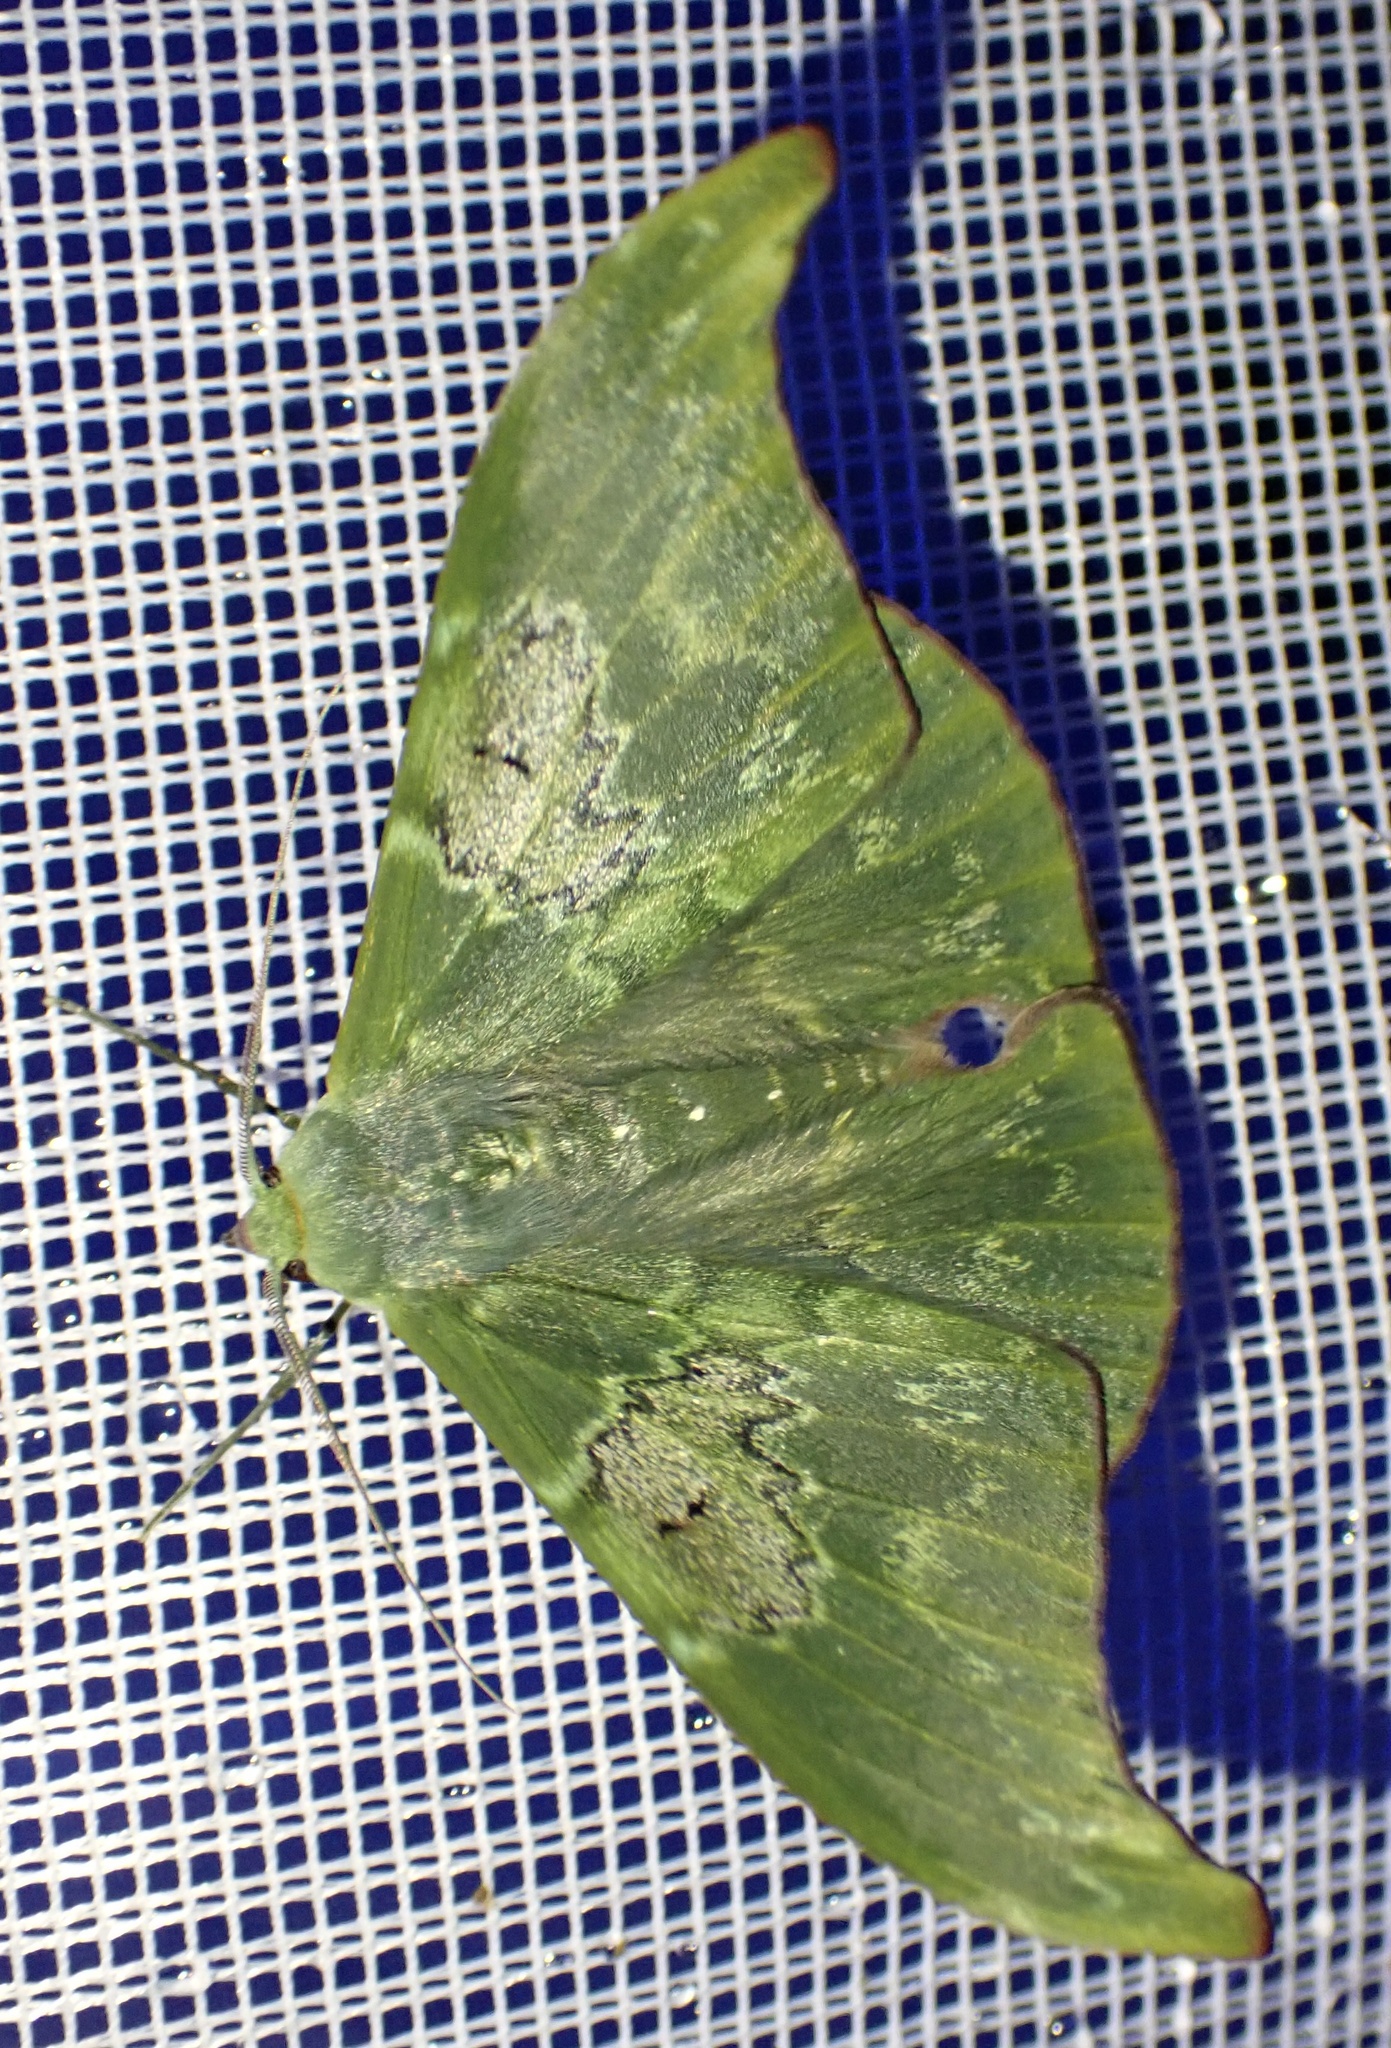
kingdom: Animalia
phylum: Arthropoda
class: Insecta
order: Lepidoptera
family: Geometridae
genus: Tanaorhinus
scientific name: Tanaorhinus unipuncta
